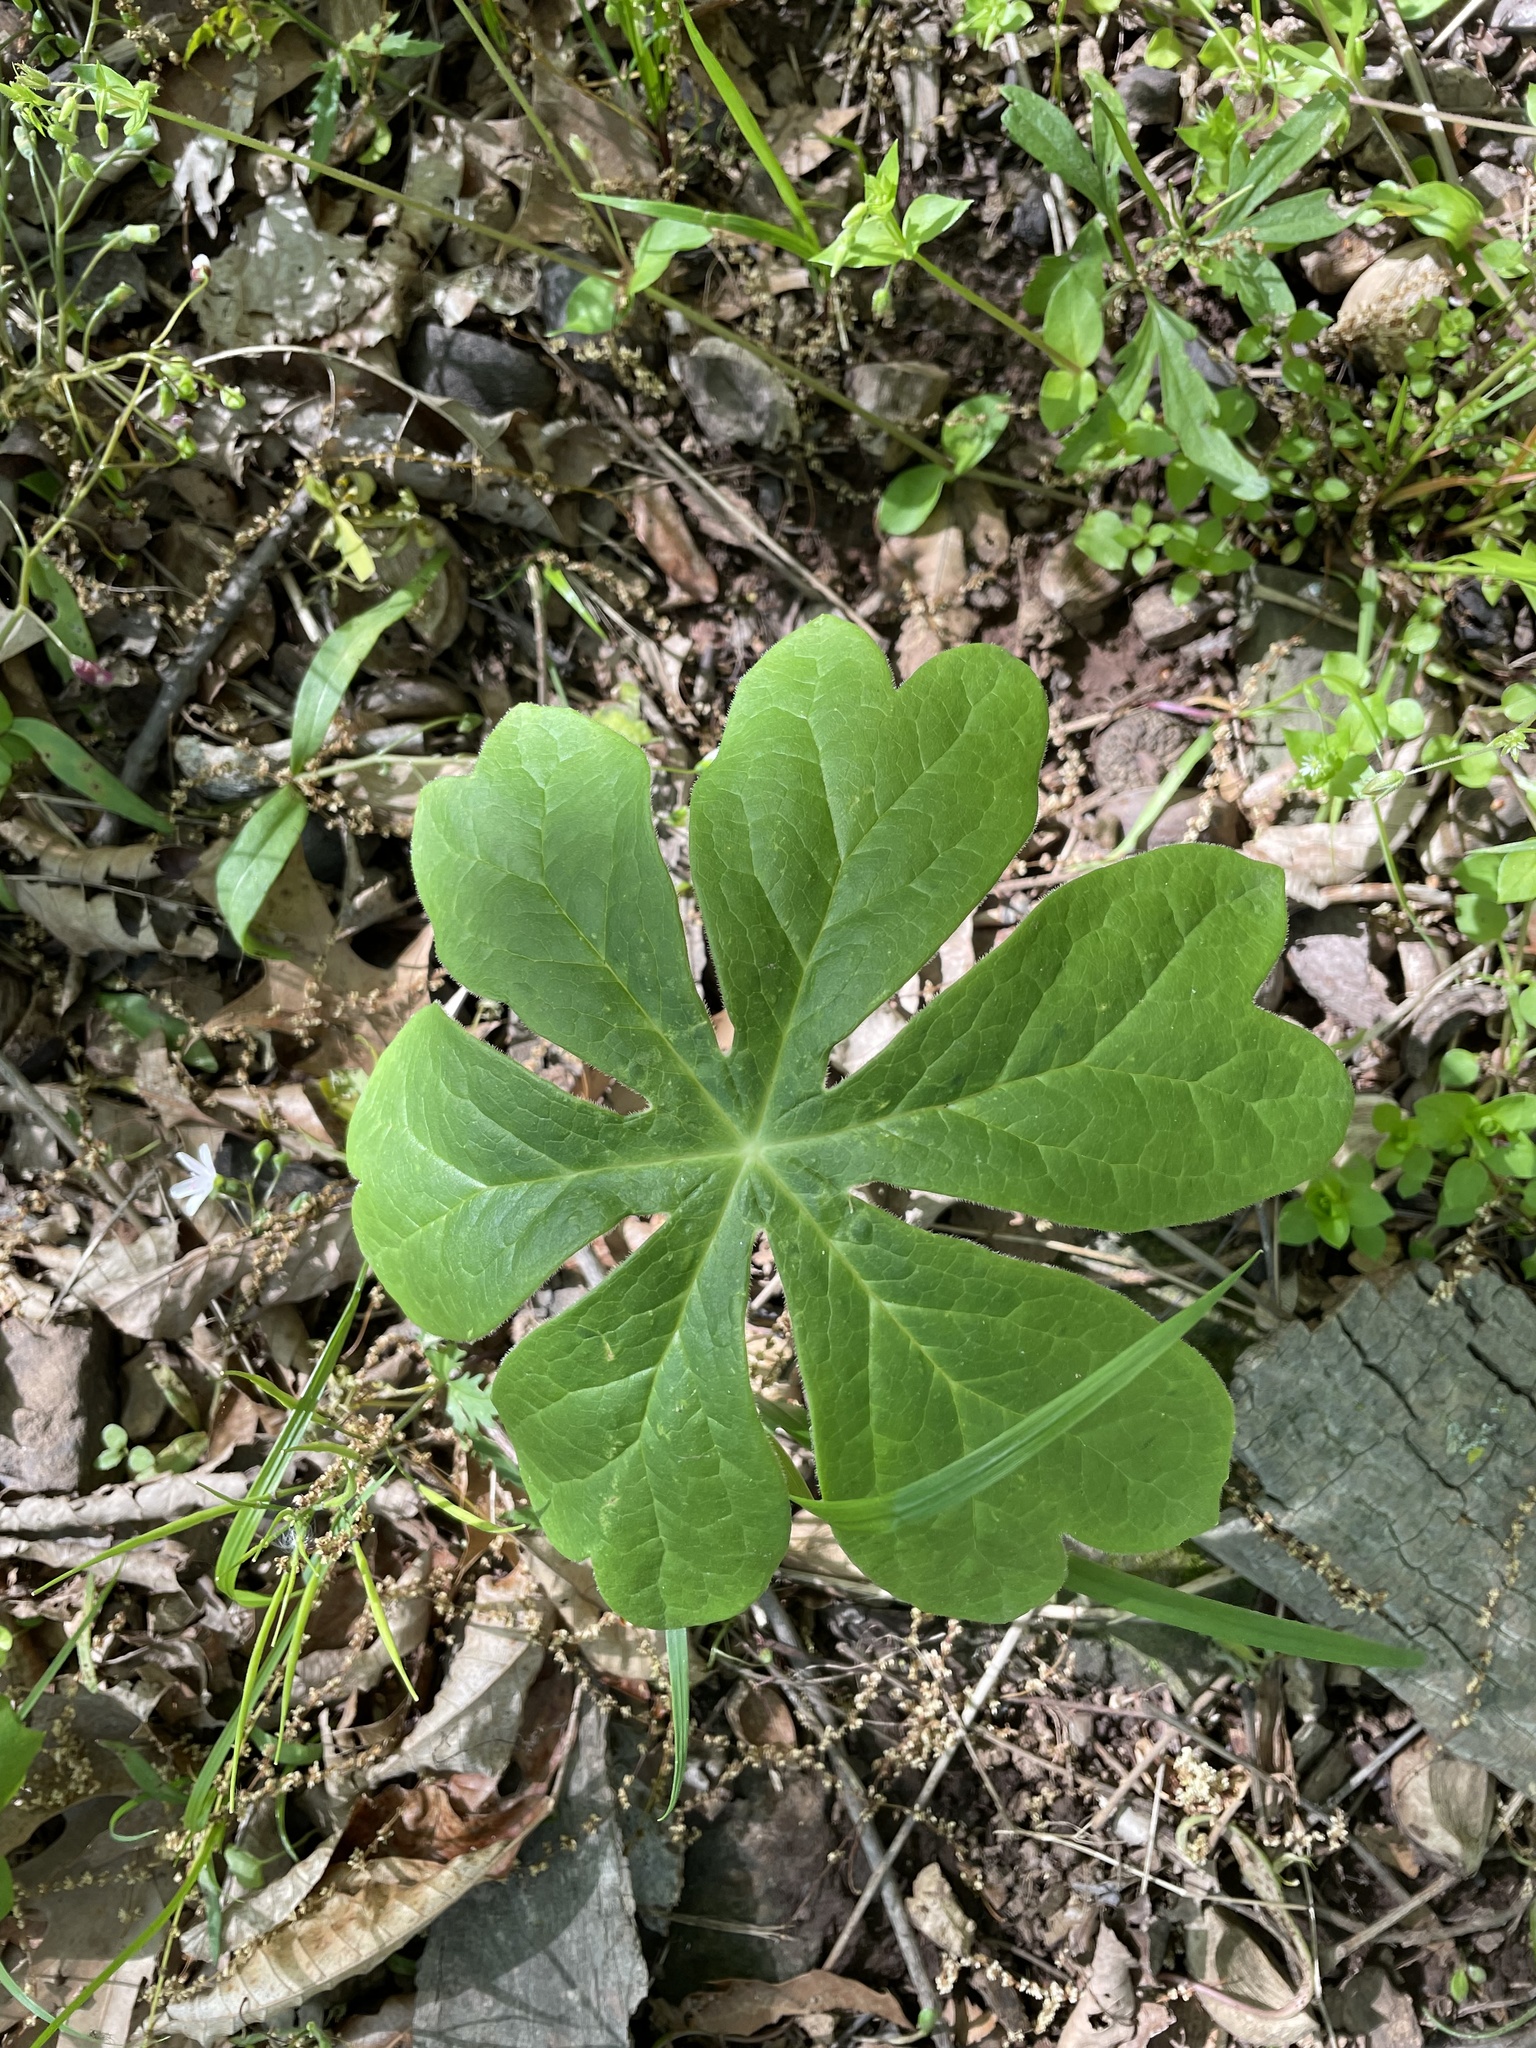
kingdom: Plantae
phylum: Tracheophyta
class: Magnoliopsida
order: Ranunculales
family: Berberidaceae
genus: Podophyllum
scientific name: Podophyllum peltatum
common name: Wild mandrake
